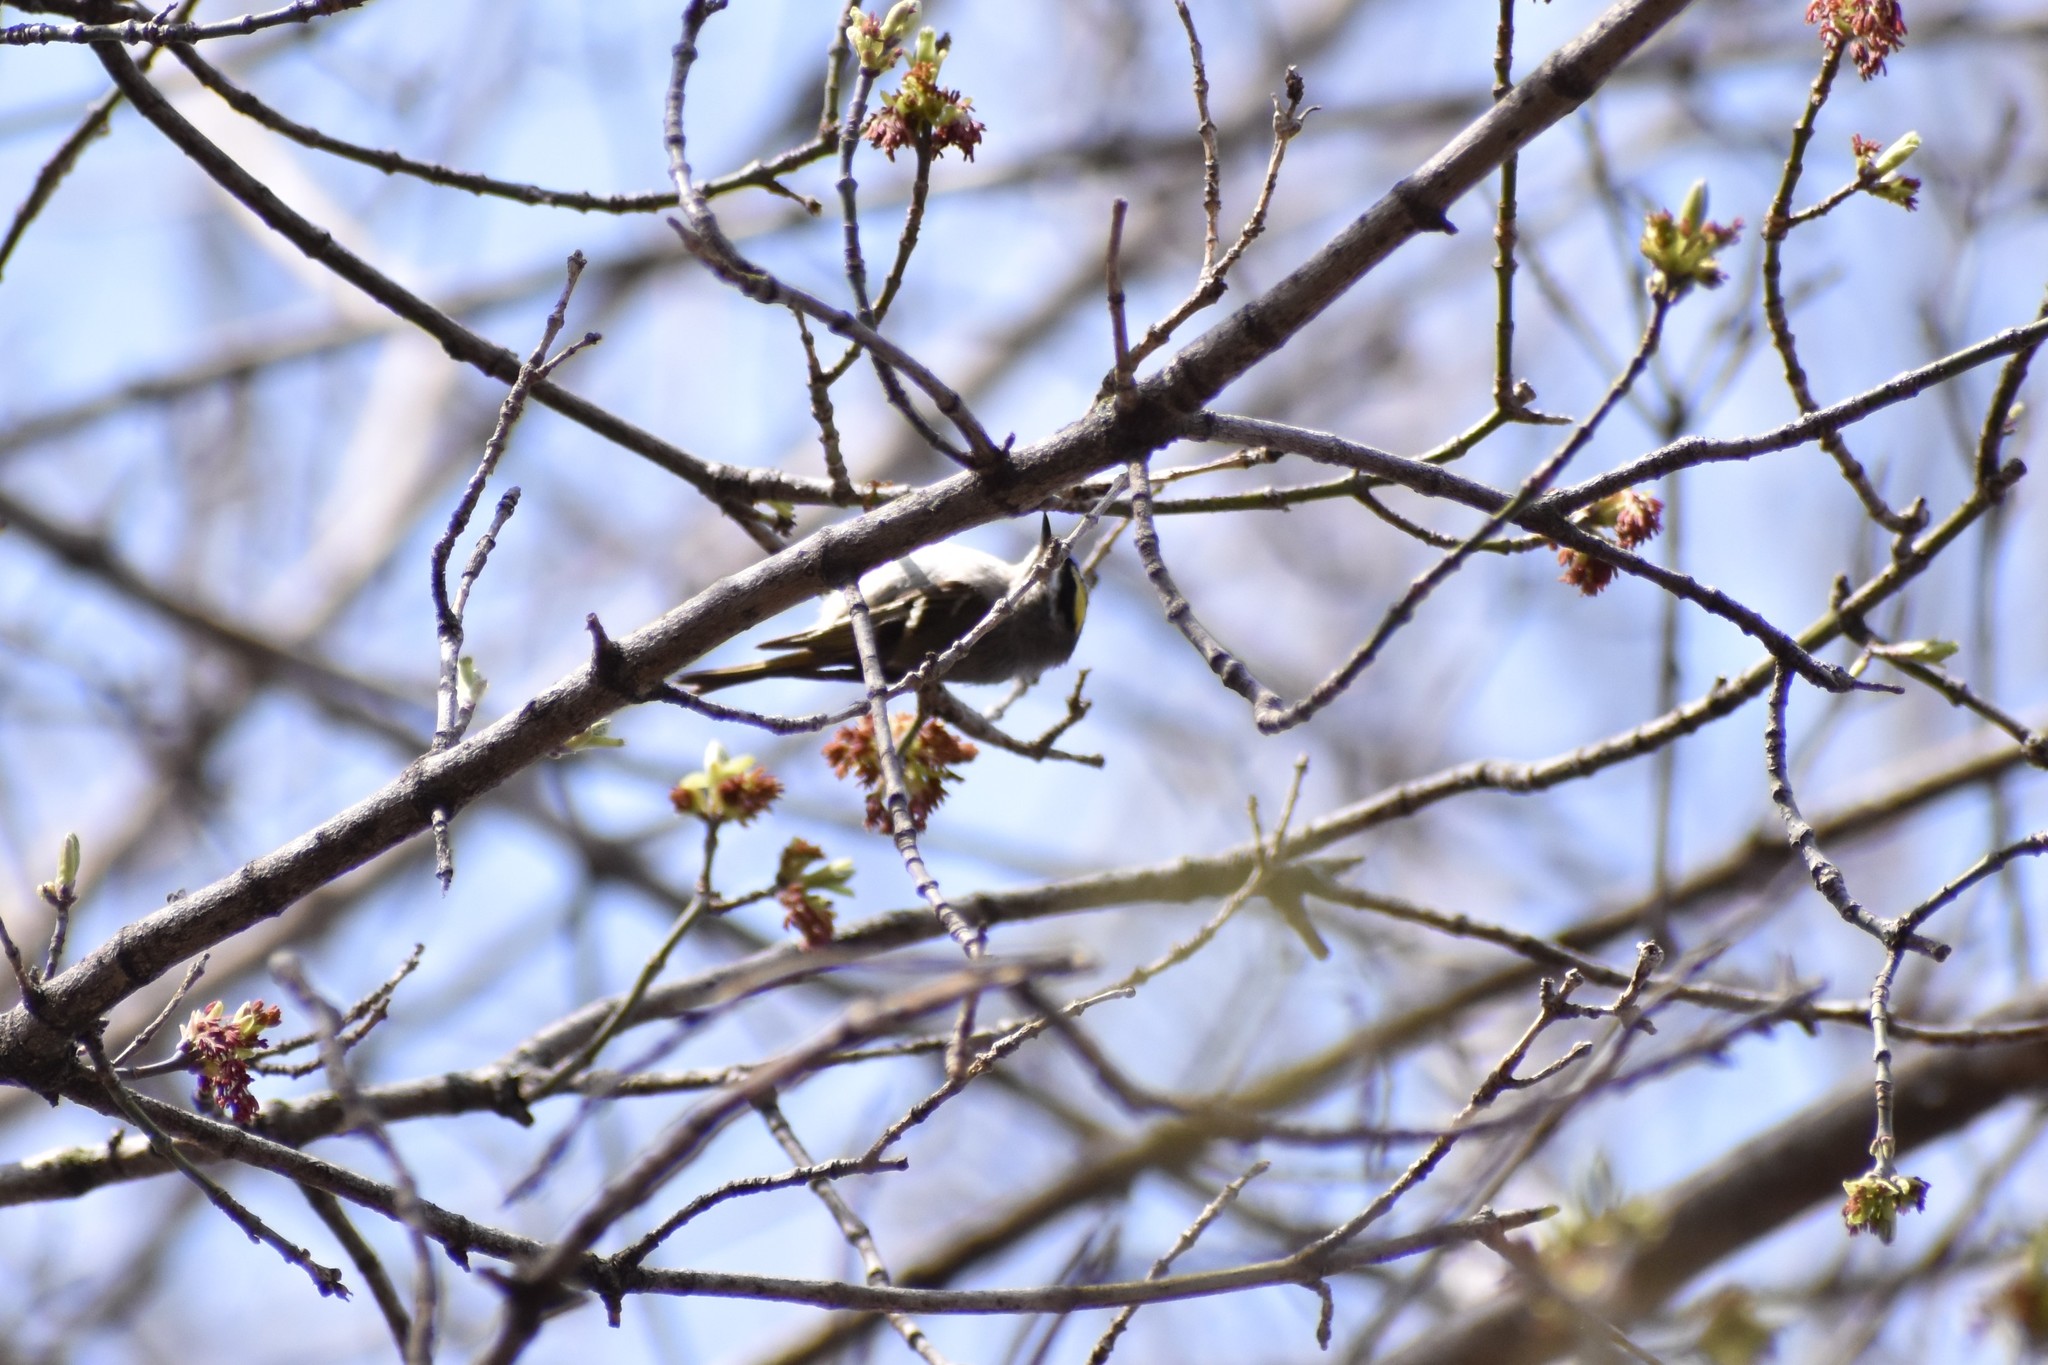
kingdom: Animalia
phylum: Chordata
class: Aves
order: Passeriformes
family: Regulidae
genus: Regulus
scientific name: Regulus satrapa
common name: Golden-crowned kinglet
